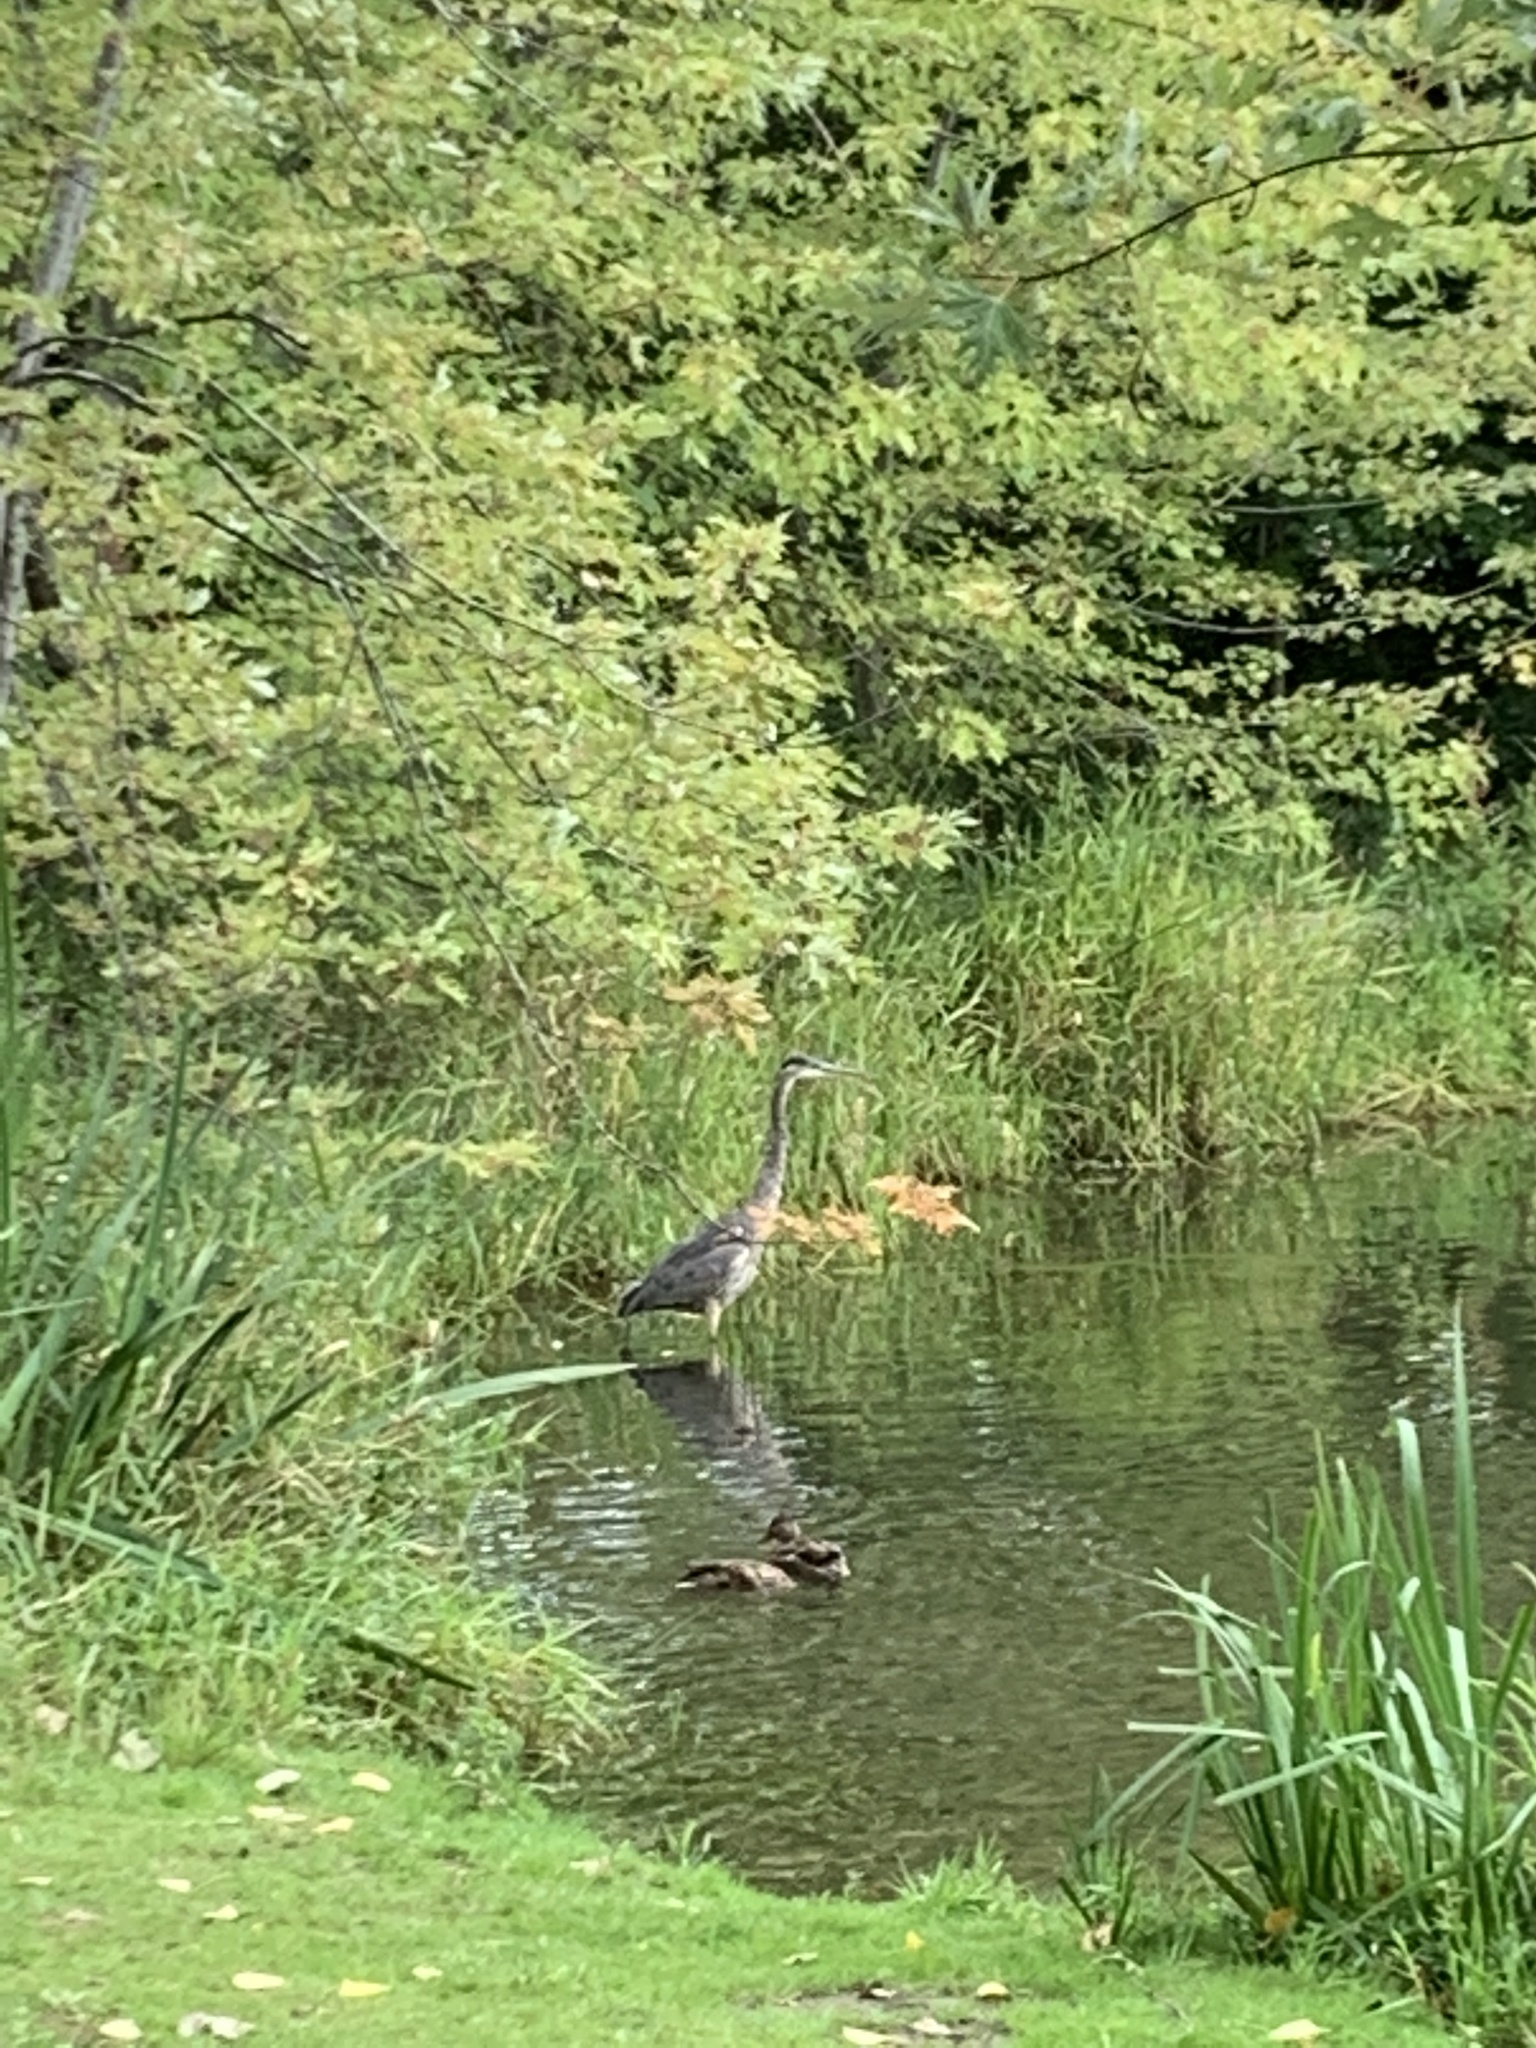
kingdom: Animalia
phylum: Chordata
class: Aves
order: Pelecaniformes
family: Ardeidae
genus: Ardea
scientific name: Ardea herodias
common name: Great blue heron
